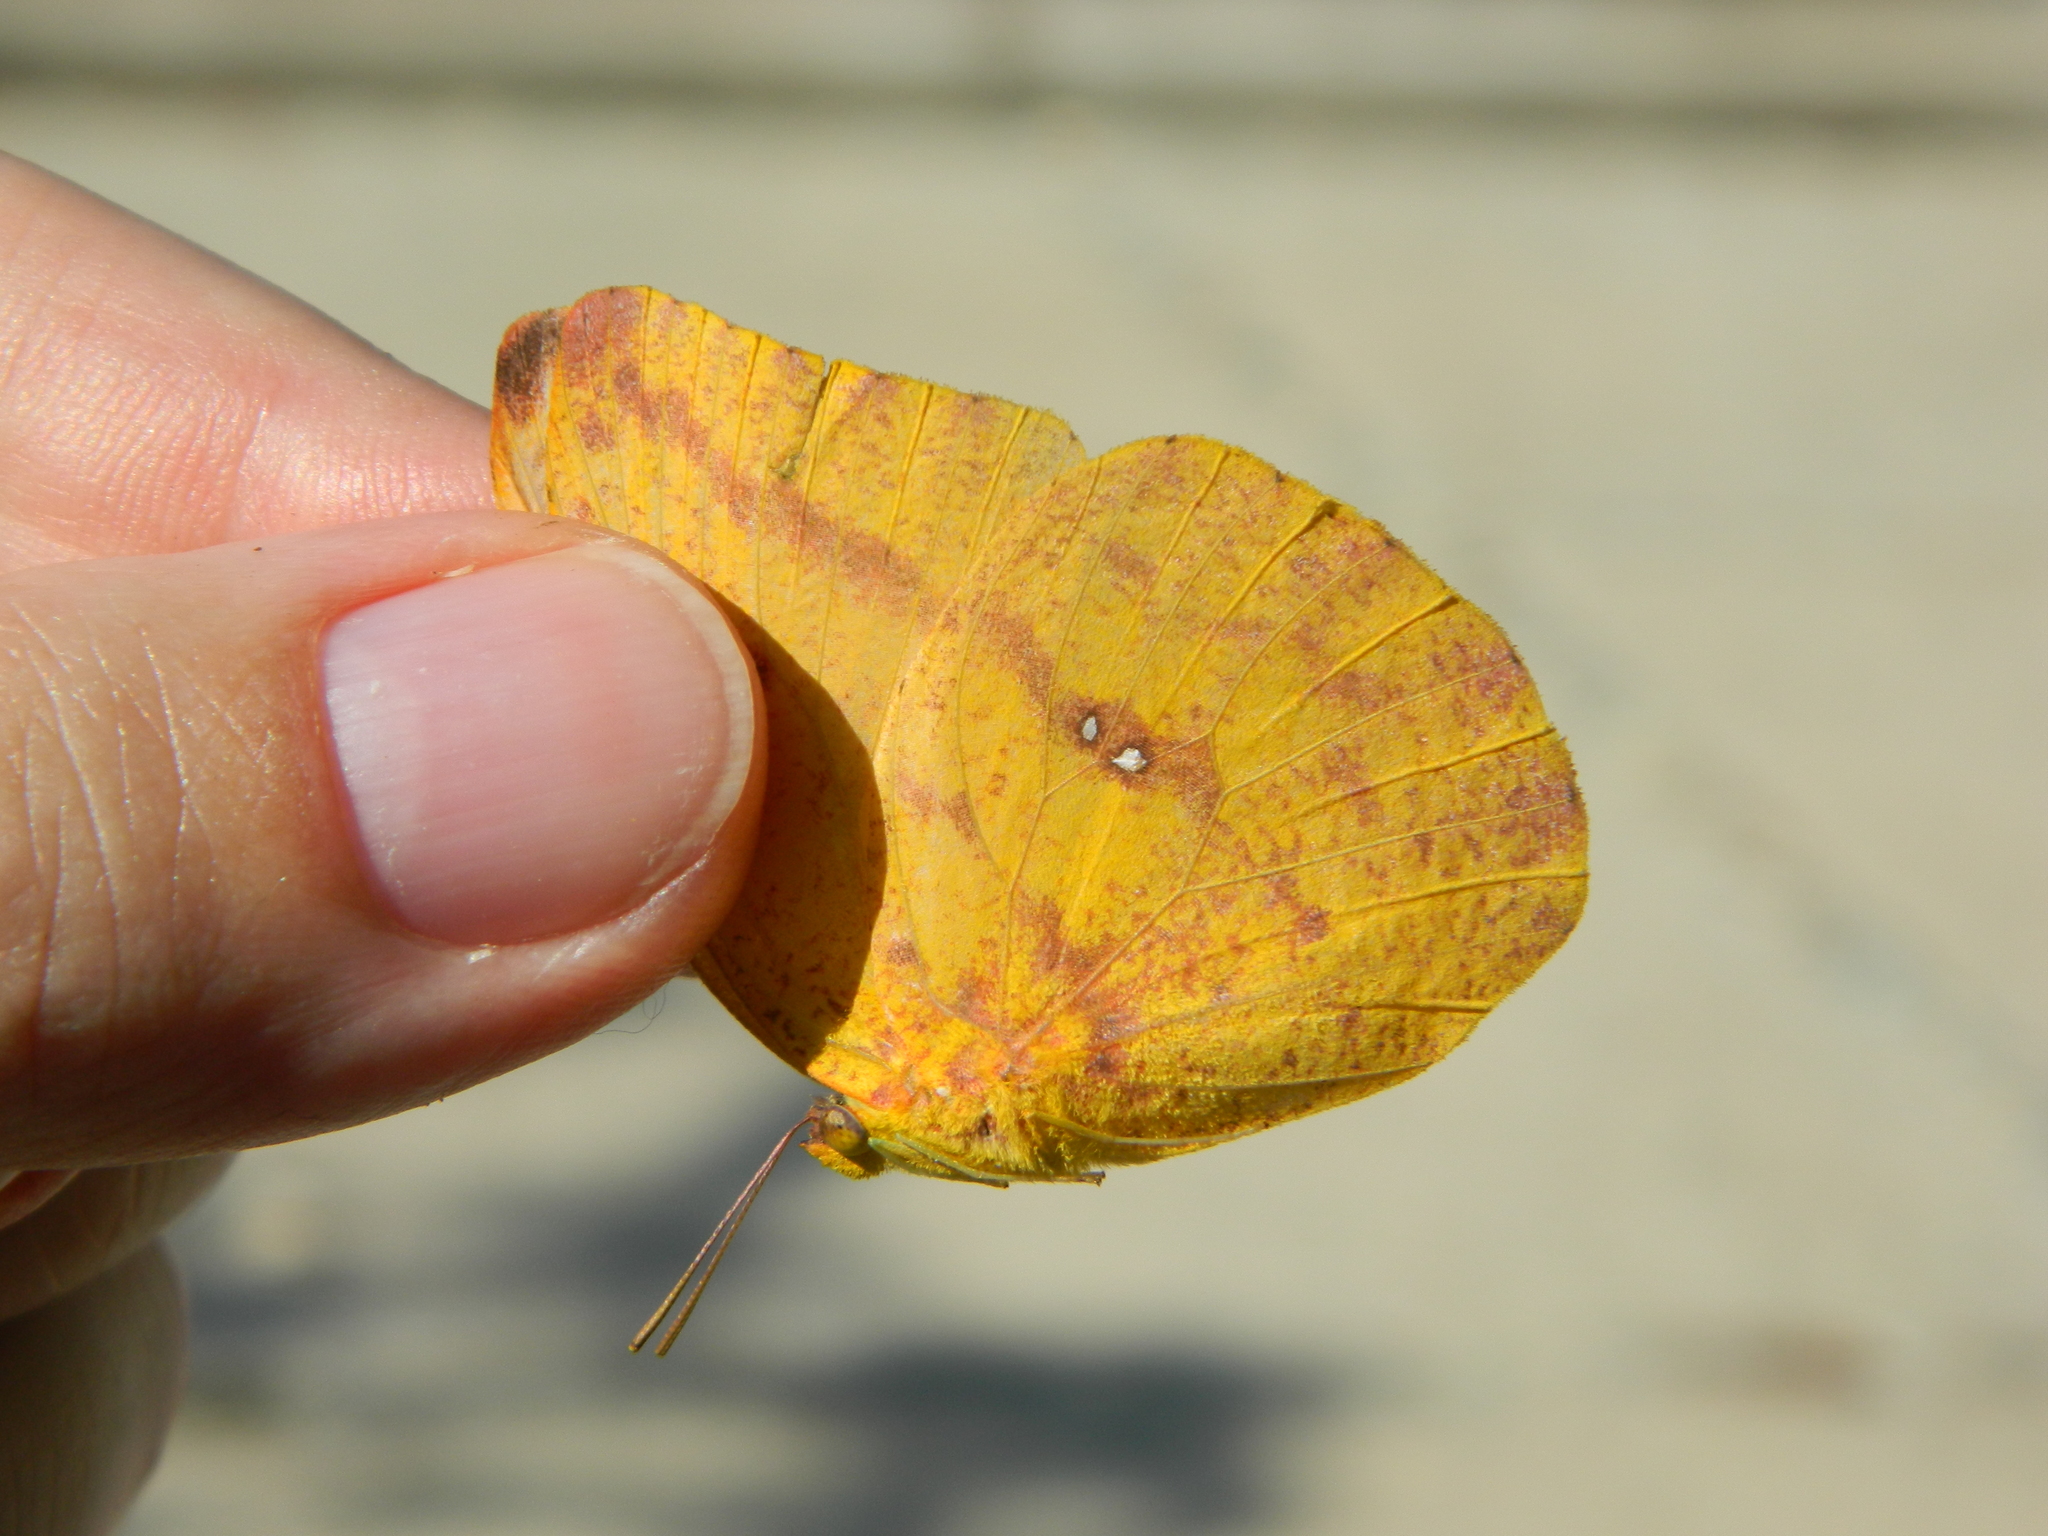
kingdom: Animalia
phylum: Arthropoda
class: Insecta
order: Lepidoptera
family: Pieridae
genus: Phoebis
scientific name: Phoebis agarithe
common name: Large orange sulphur
